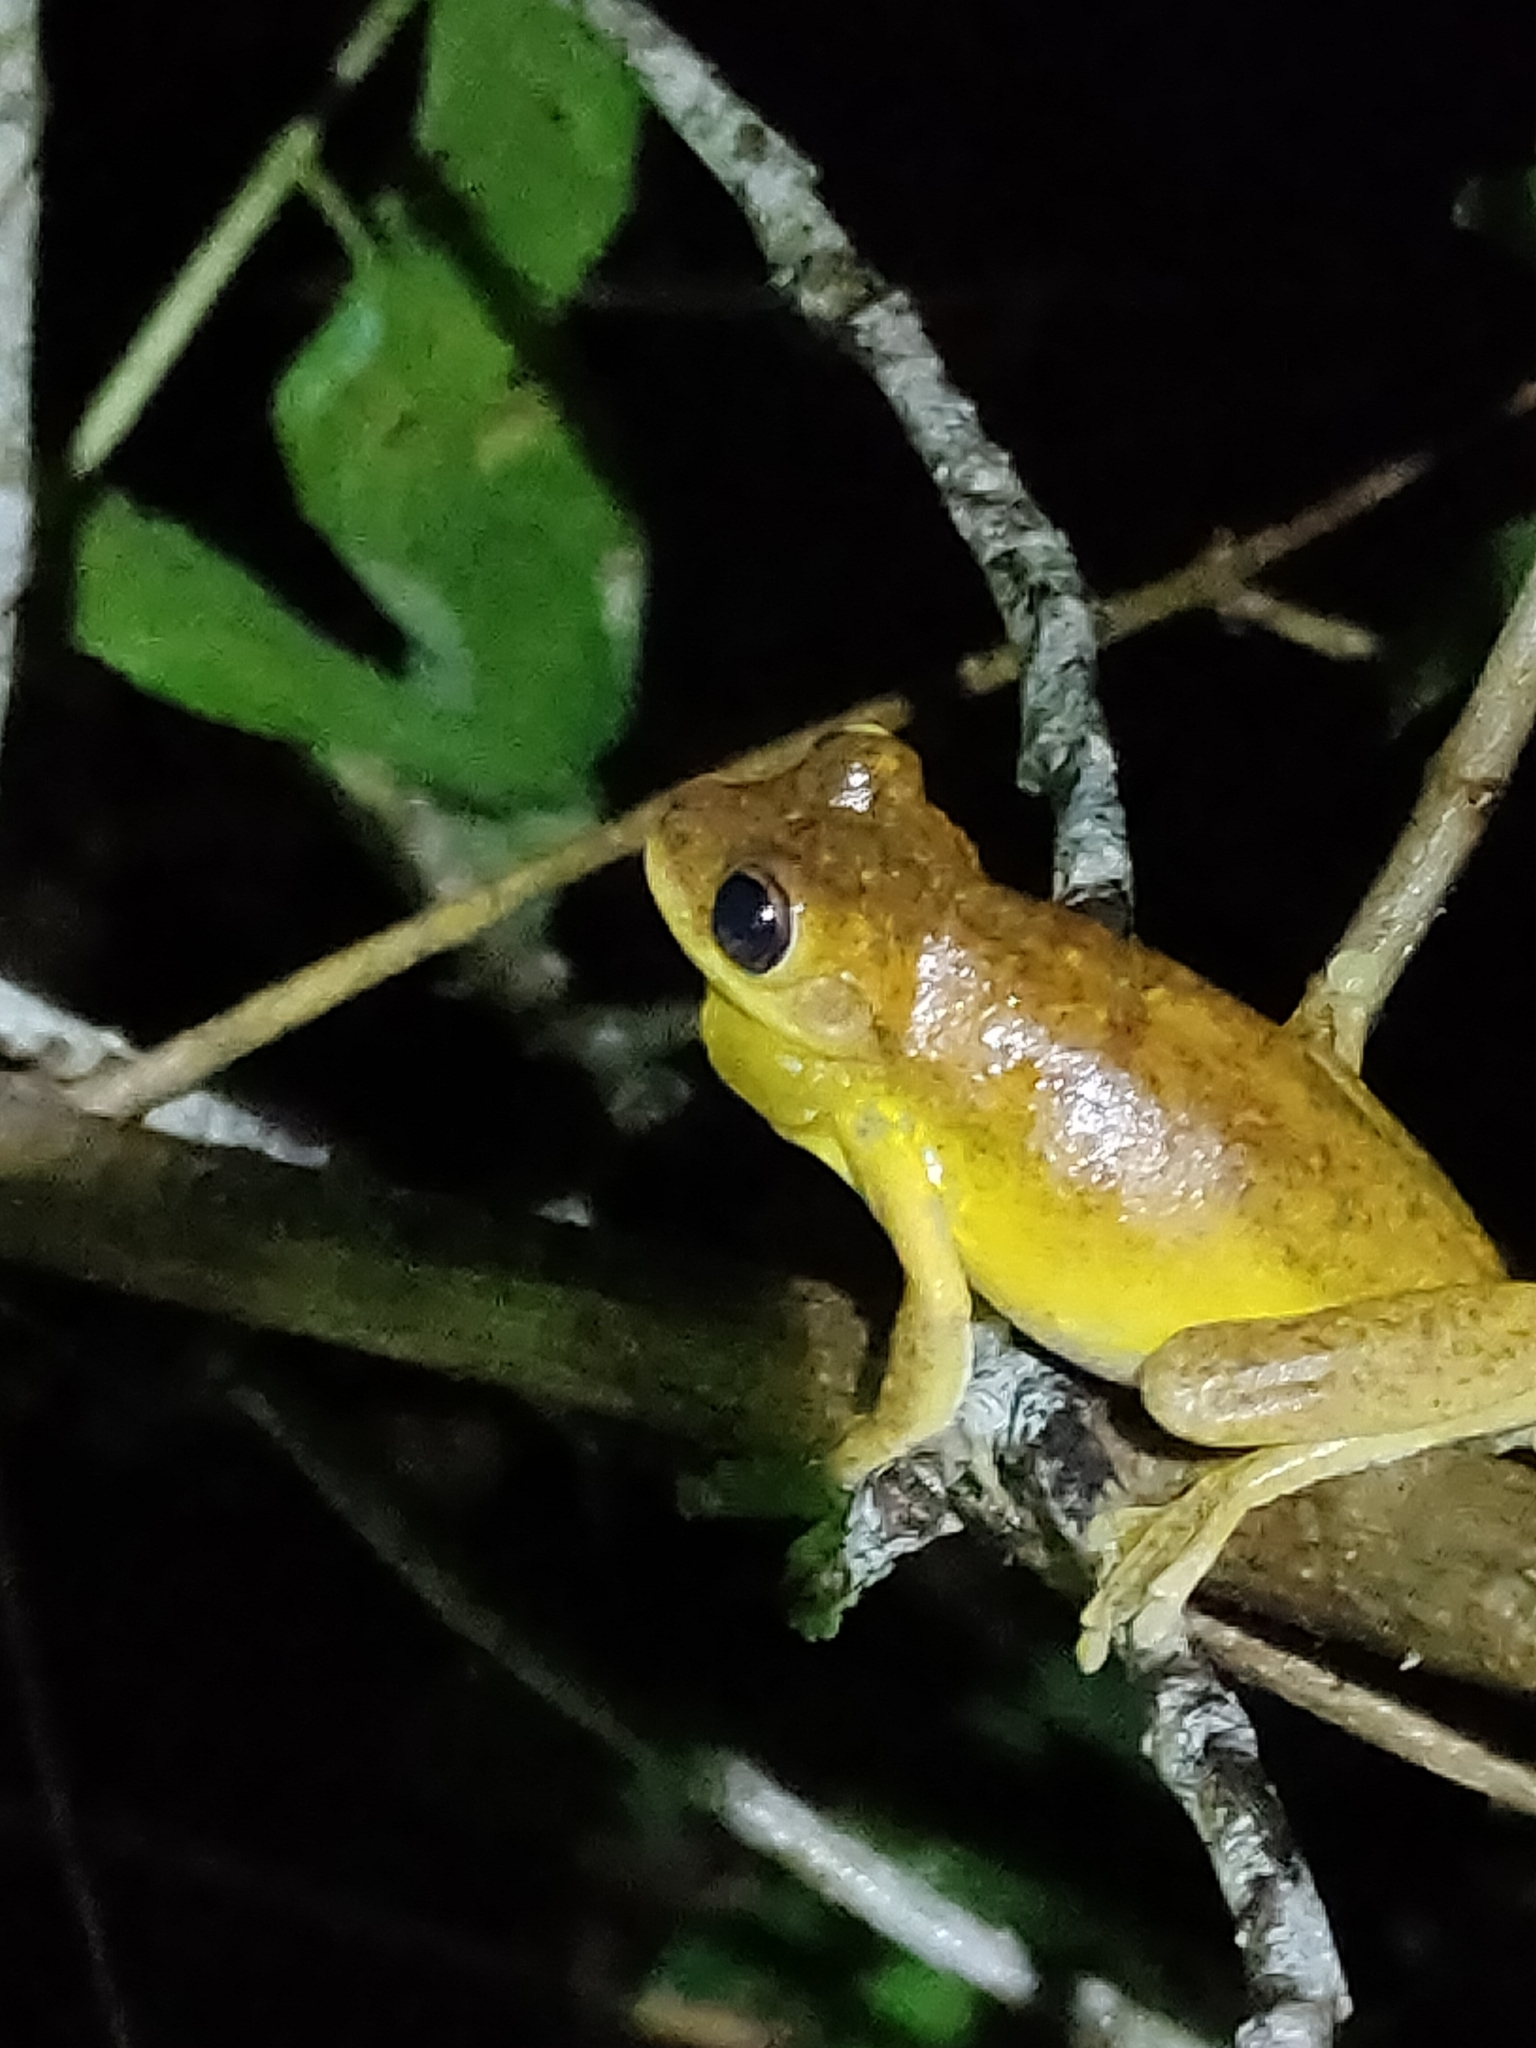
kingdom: Animalia
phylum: Chordata
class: Amphibia
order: Anura
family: Pelodryadidae
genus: Litoria
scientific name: Litoria tyleri
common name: Laughing tree frog
